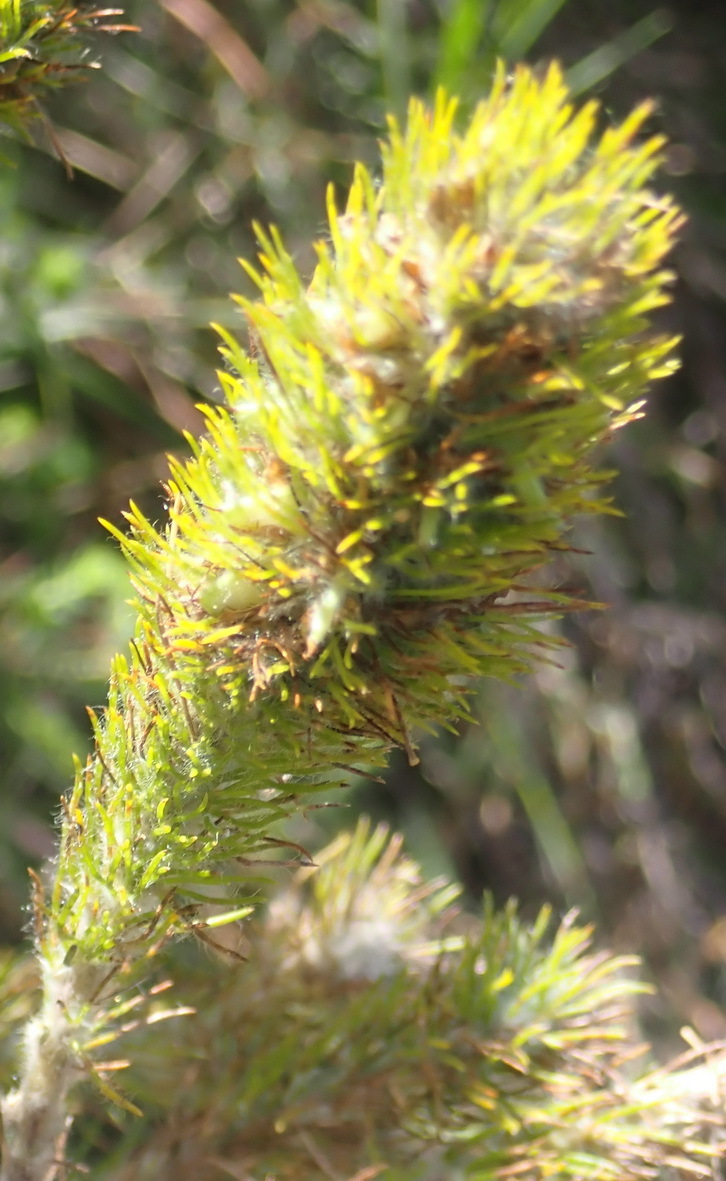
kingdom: Plantae
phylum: Tracheophyta
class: Magnoliopsida
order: Fabales
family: Fabaceae
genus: Aspalathus
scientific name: Aspalathus alopecurus
